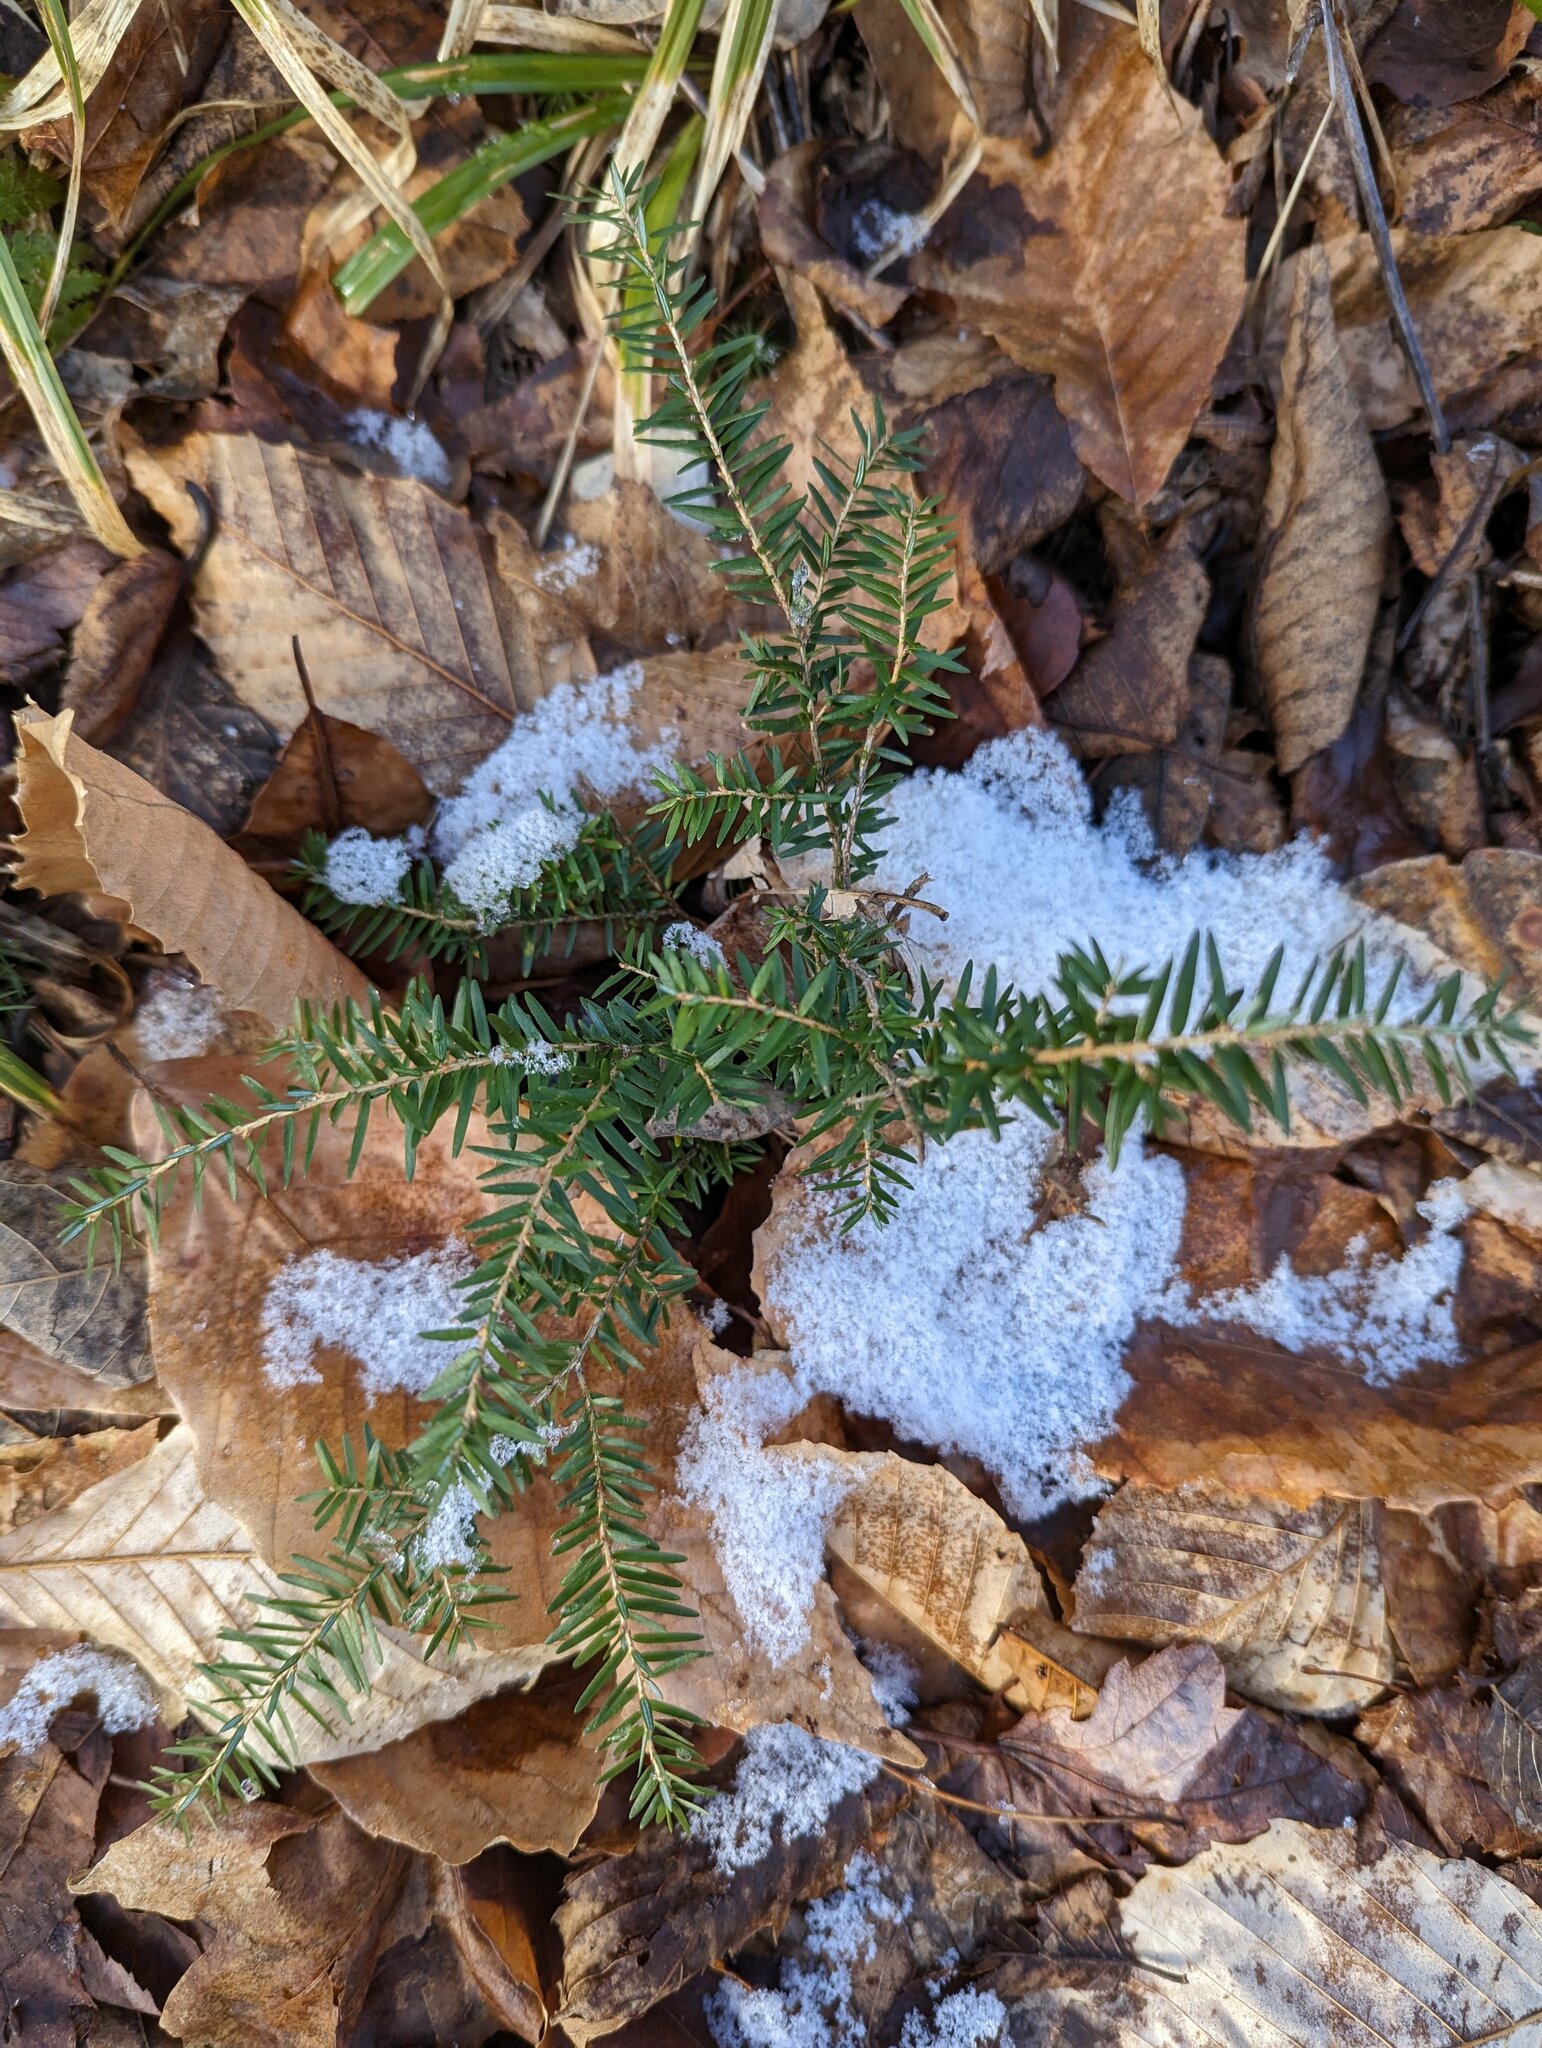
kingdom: Plantae
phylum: Tracheophyta
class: Pinopsida
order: Pinales
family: Pinaceae
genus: Tsuga
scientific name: Tsuga canadensis
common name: Eastern hemlock
